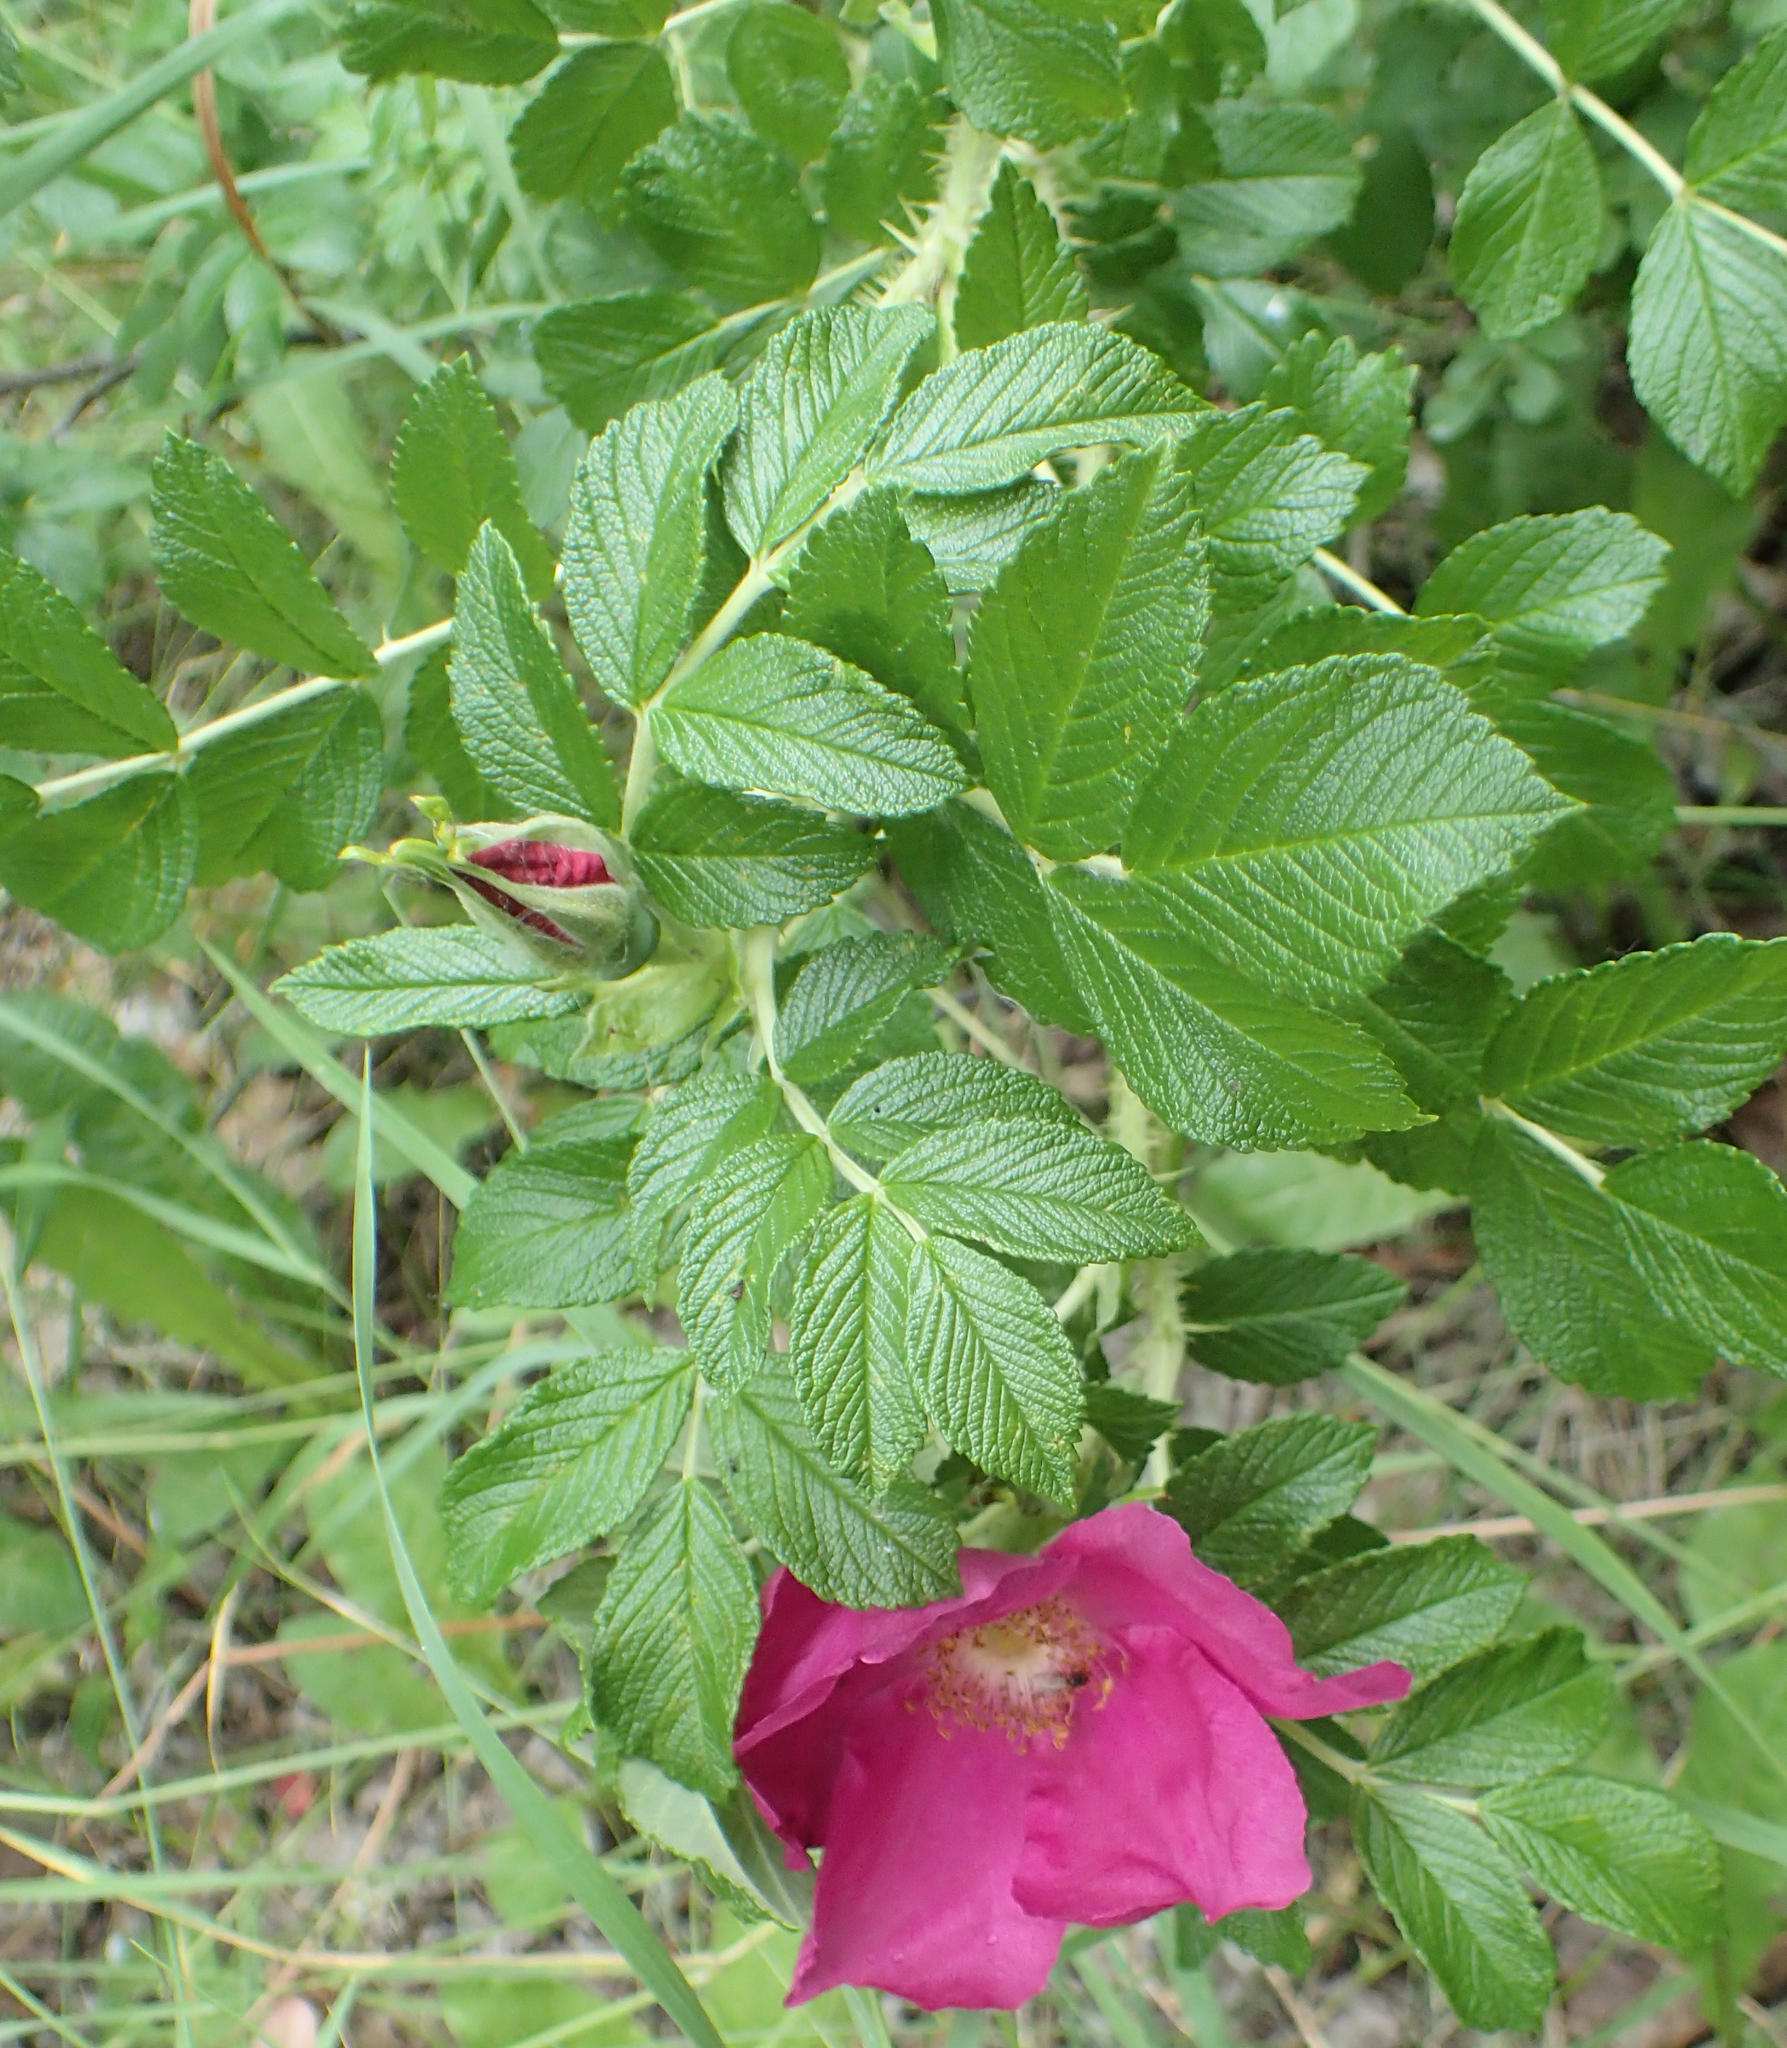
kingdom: Plantae
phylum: Tracheophyta
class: Magnoliopsida
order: Rosales
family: Rosaceae
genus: Rosa
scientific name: Rosa rugosa
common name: Japanese rose
